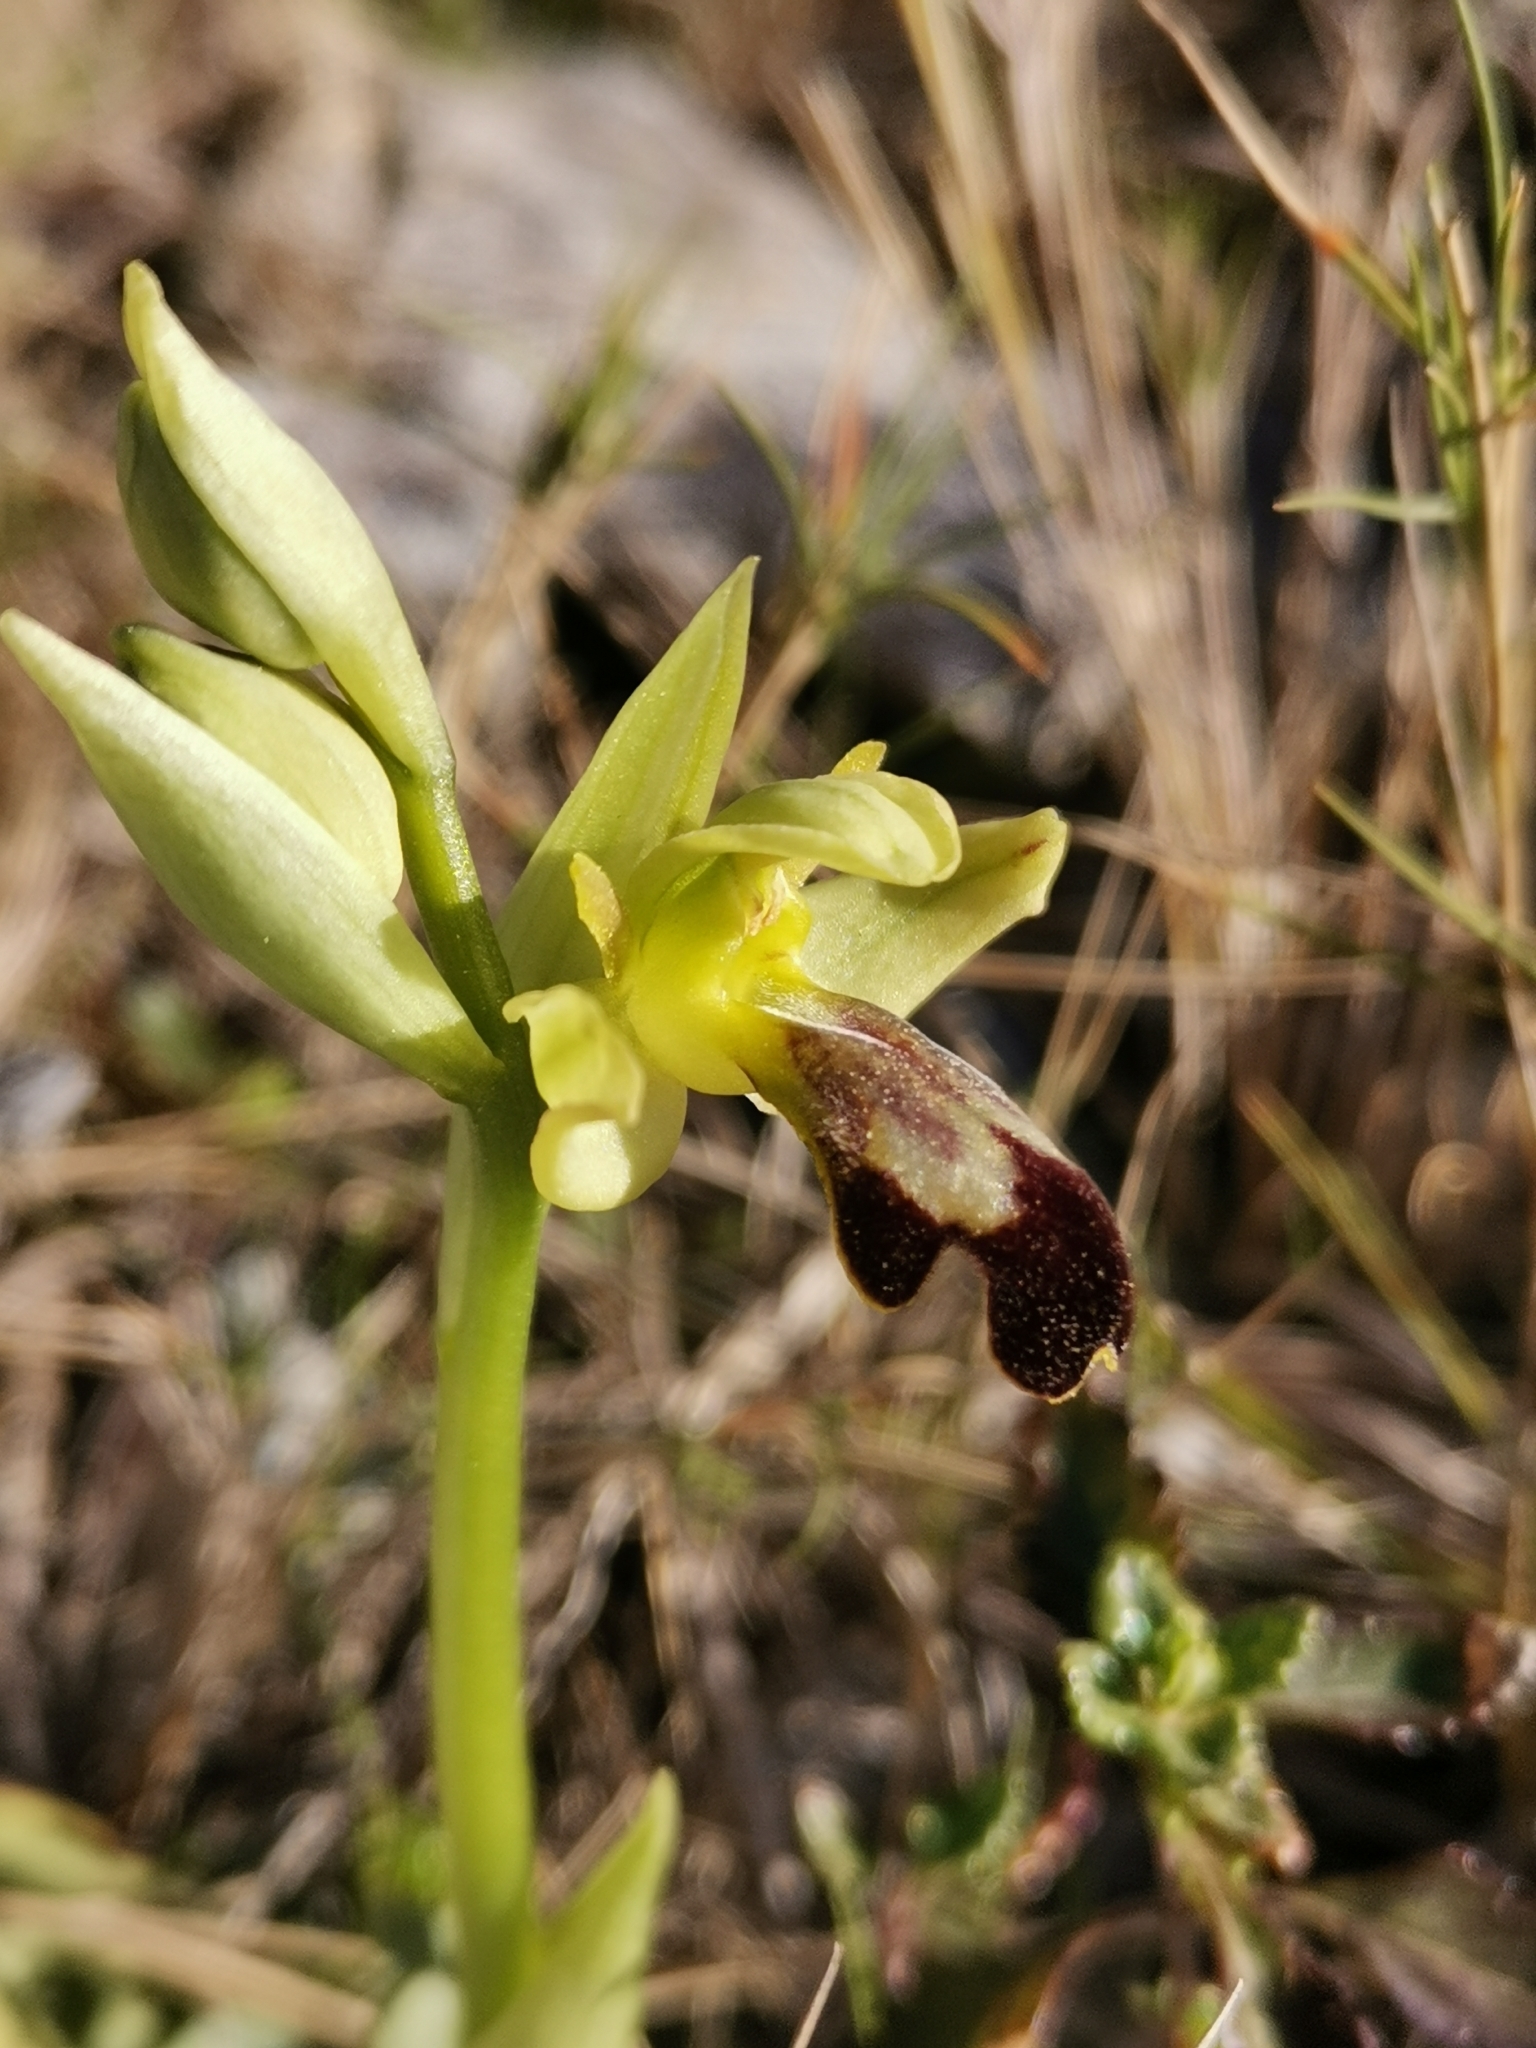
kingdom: Plantae
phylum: Tracheophyta
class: Liliopsida
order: Asparagales
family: Orchidaceae
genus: Ophrys
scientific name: Ophrys fusca
